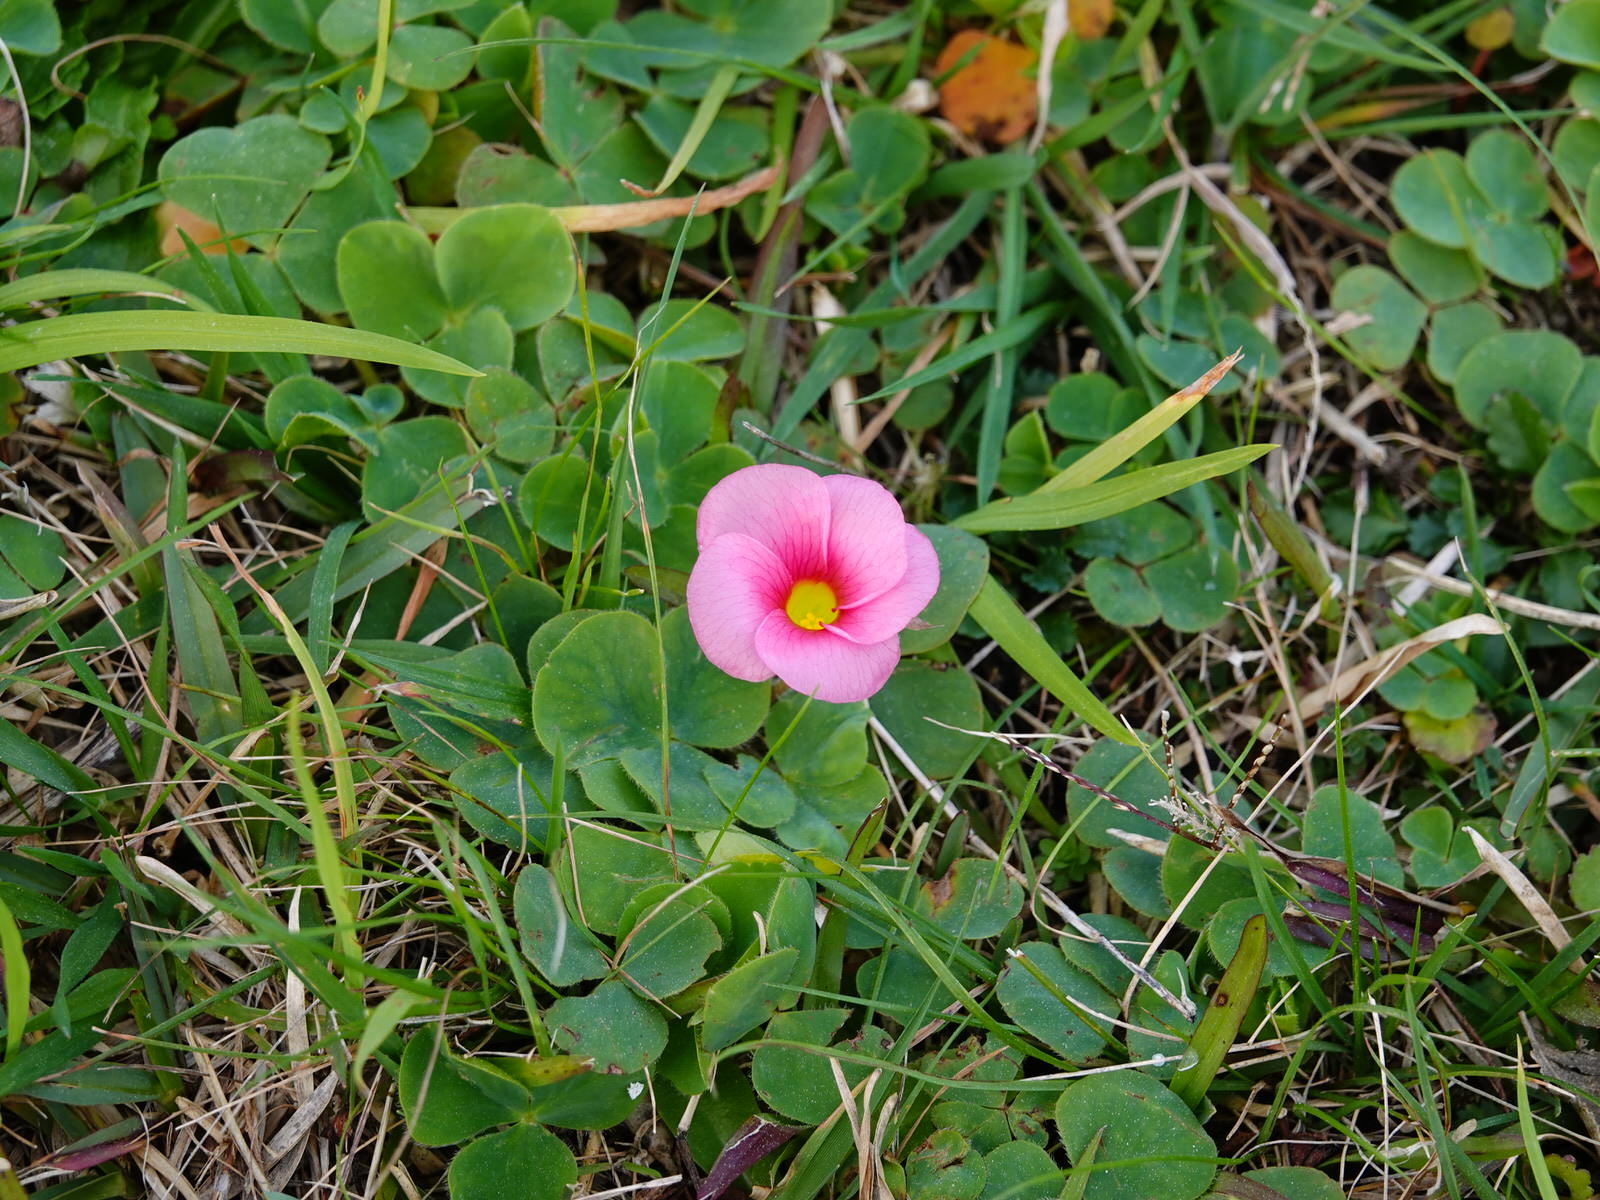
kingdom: Plantae
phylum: Tracheophyta
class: Magnoliopsida
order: Oxalidales
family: Oxalidaceae
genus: Oxalis
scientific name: Oxalis purpurea
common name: Purple woodsorrel
